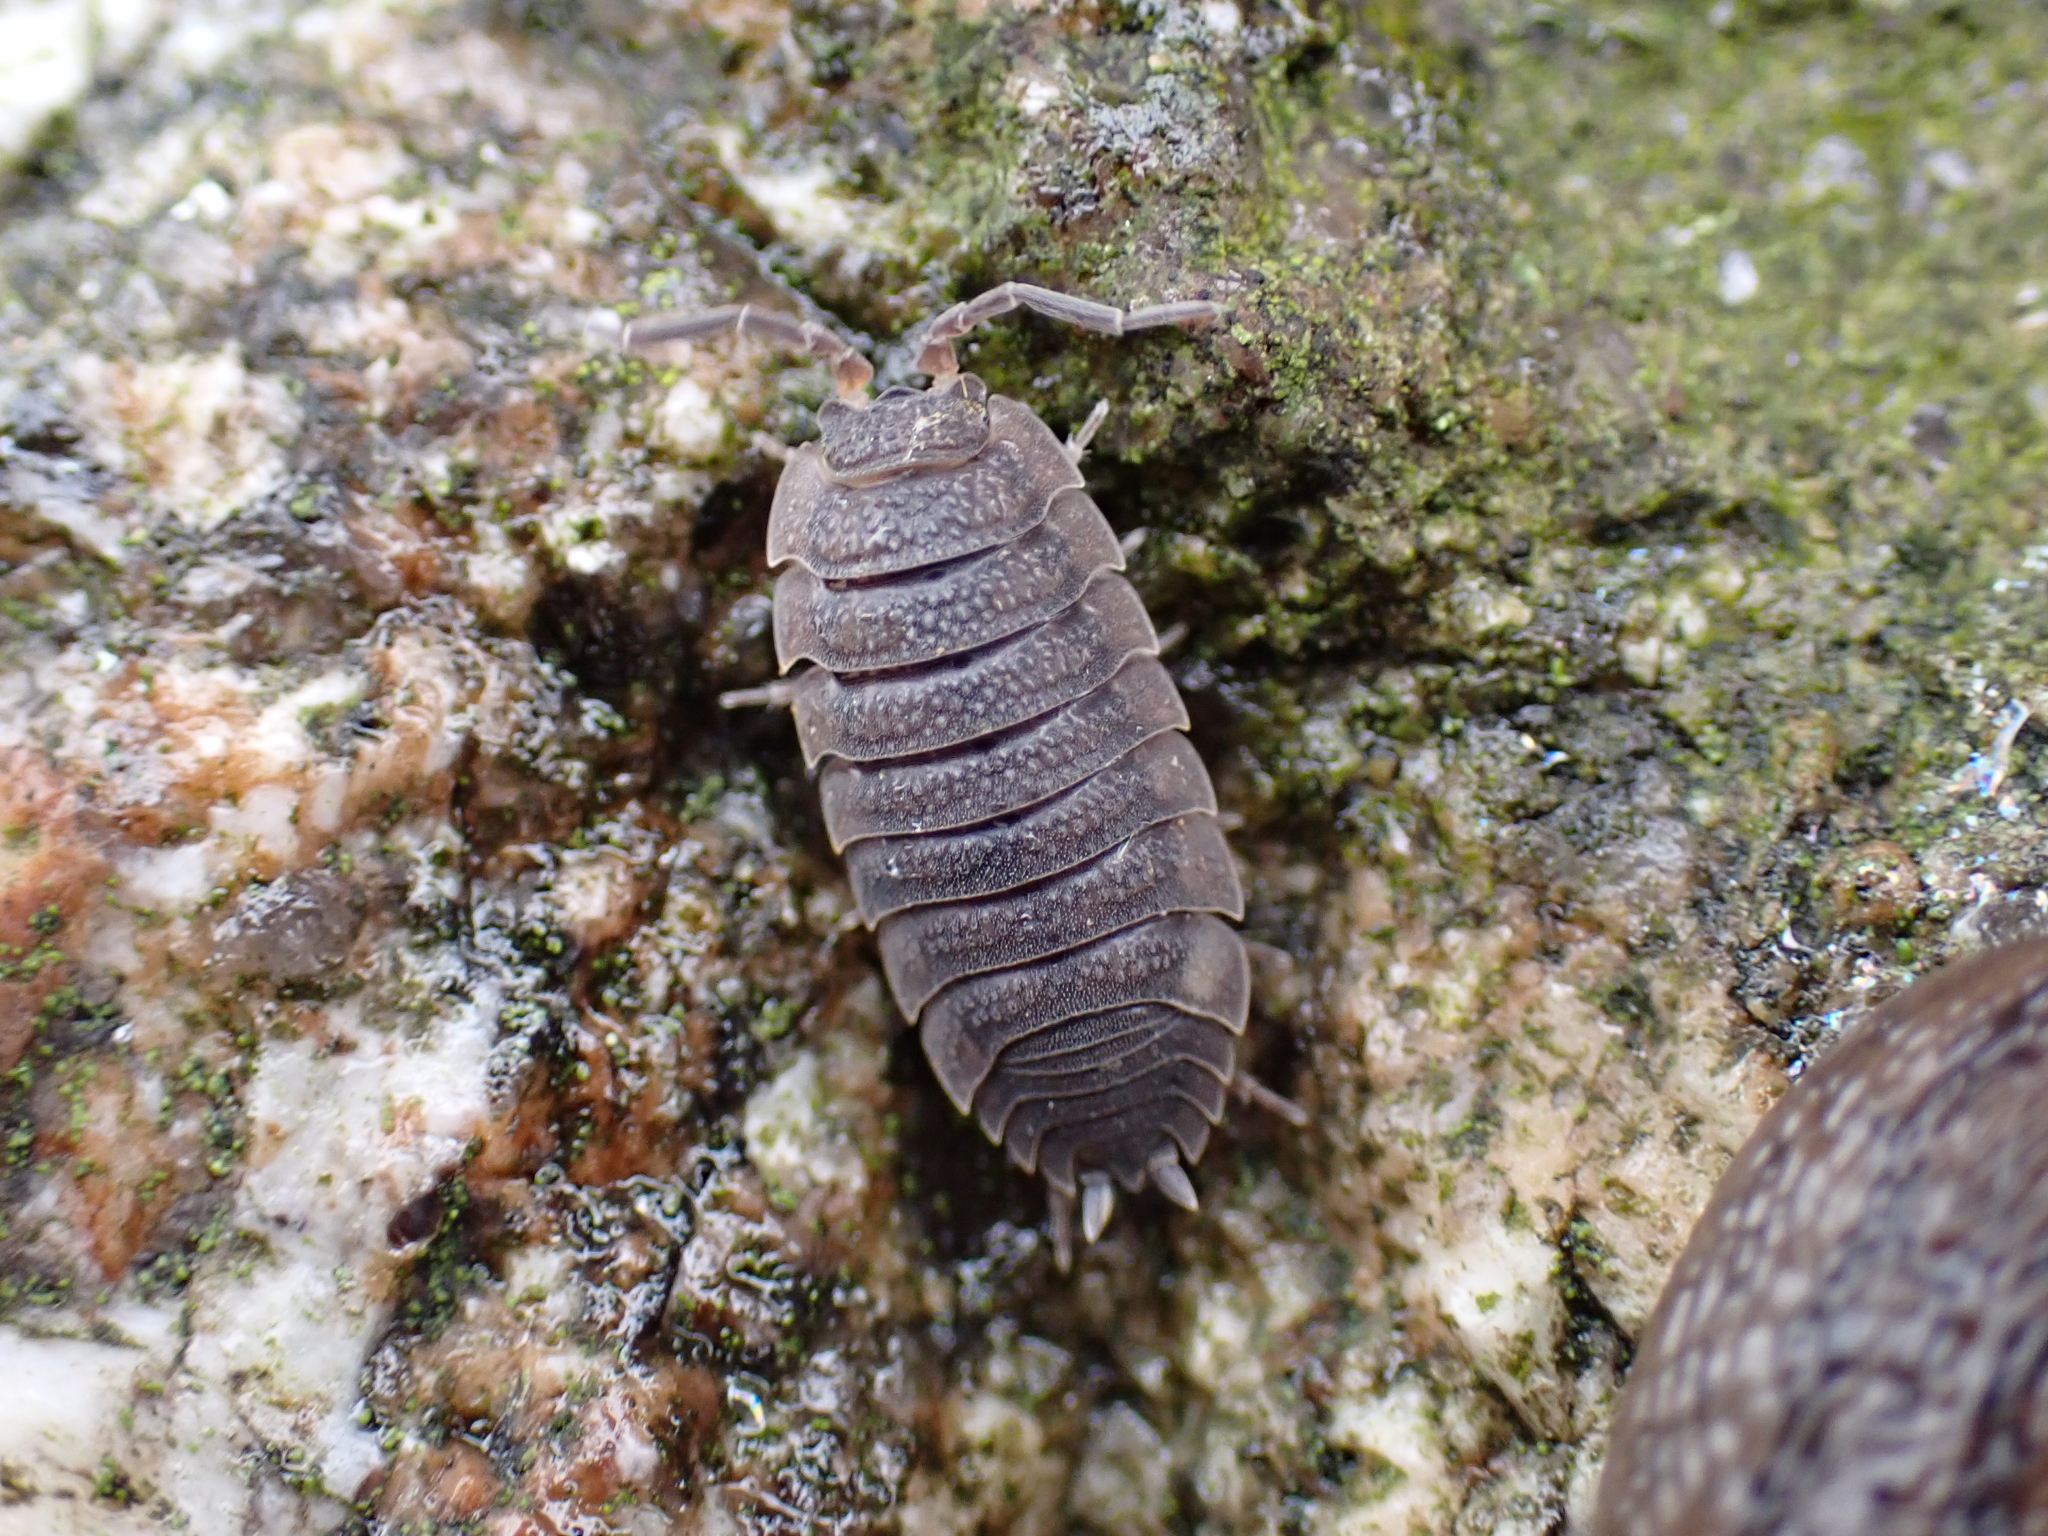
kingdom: Animalia
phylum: Arthropoda
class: Malacostraca
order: Isopoda
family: Porcellionidae
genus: Porcellio
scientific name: Porcellio scaber
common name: Common rough woodlouse
